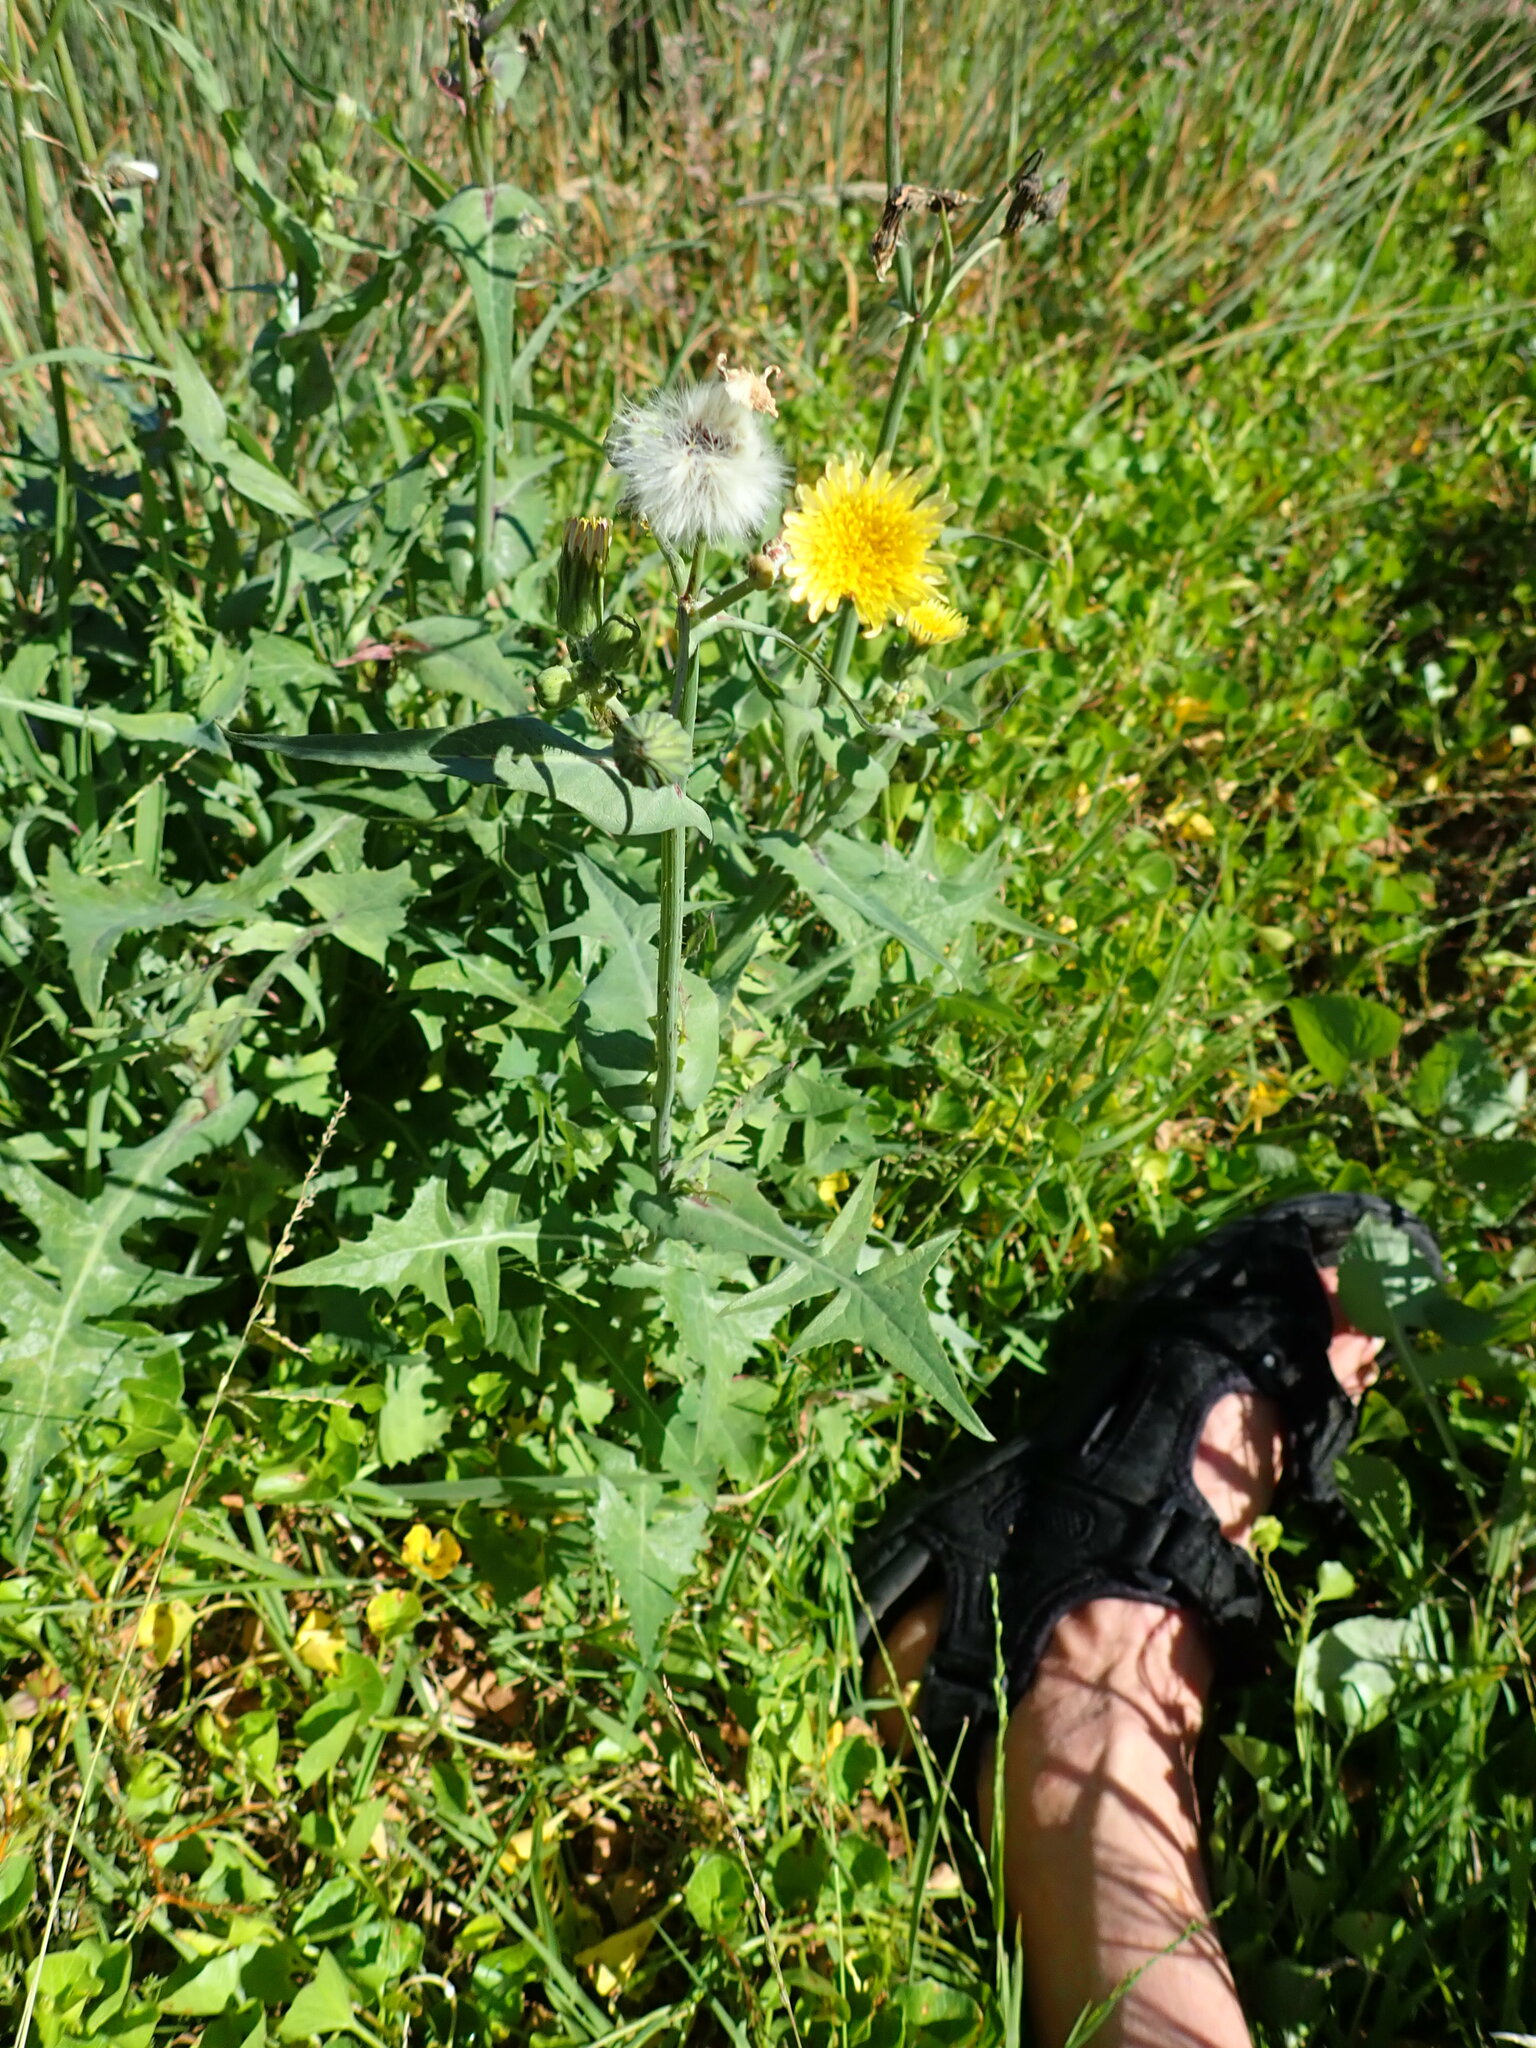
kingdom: Plantae
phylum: Tracheophyta
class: Magnoliopsida
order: Asterales
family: Asteraceae
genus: Sonchus
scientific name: Sonchus oleraceus
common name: Common sowthistle
